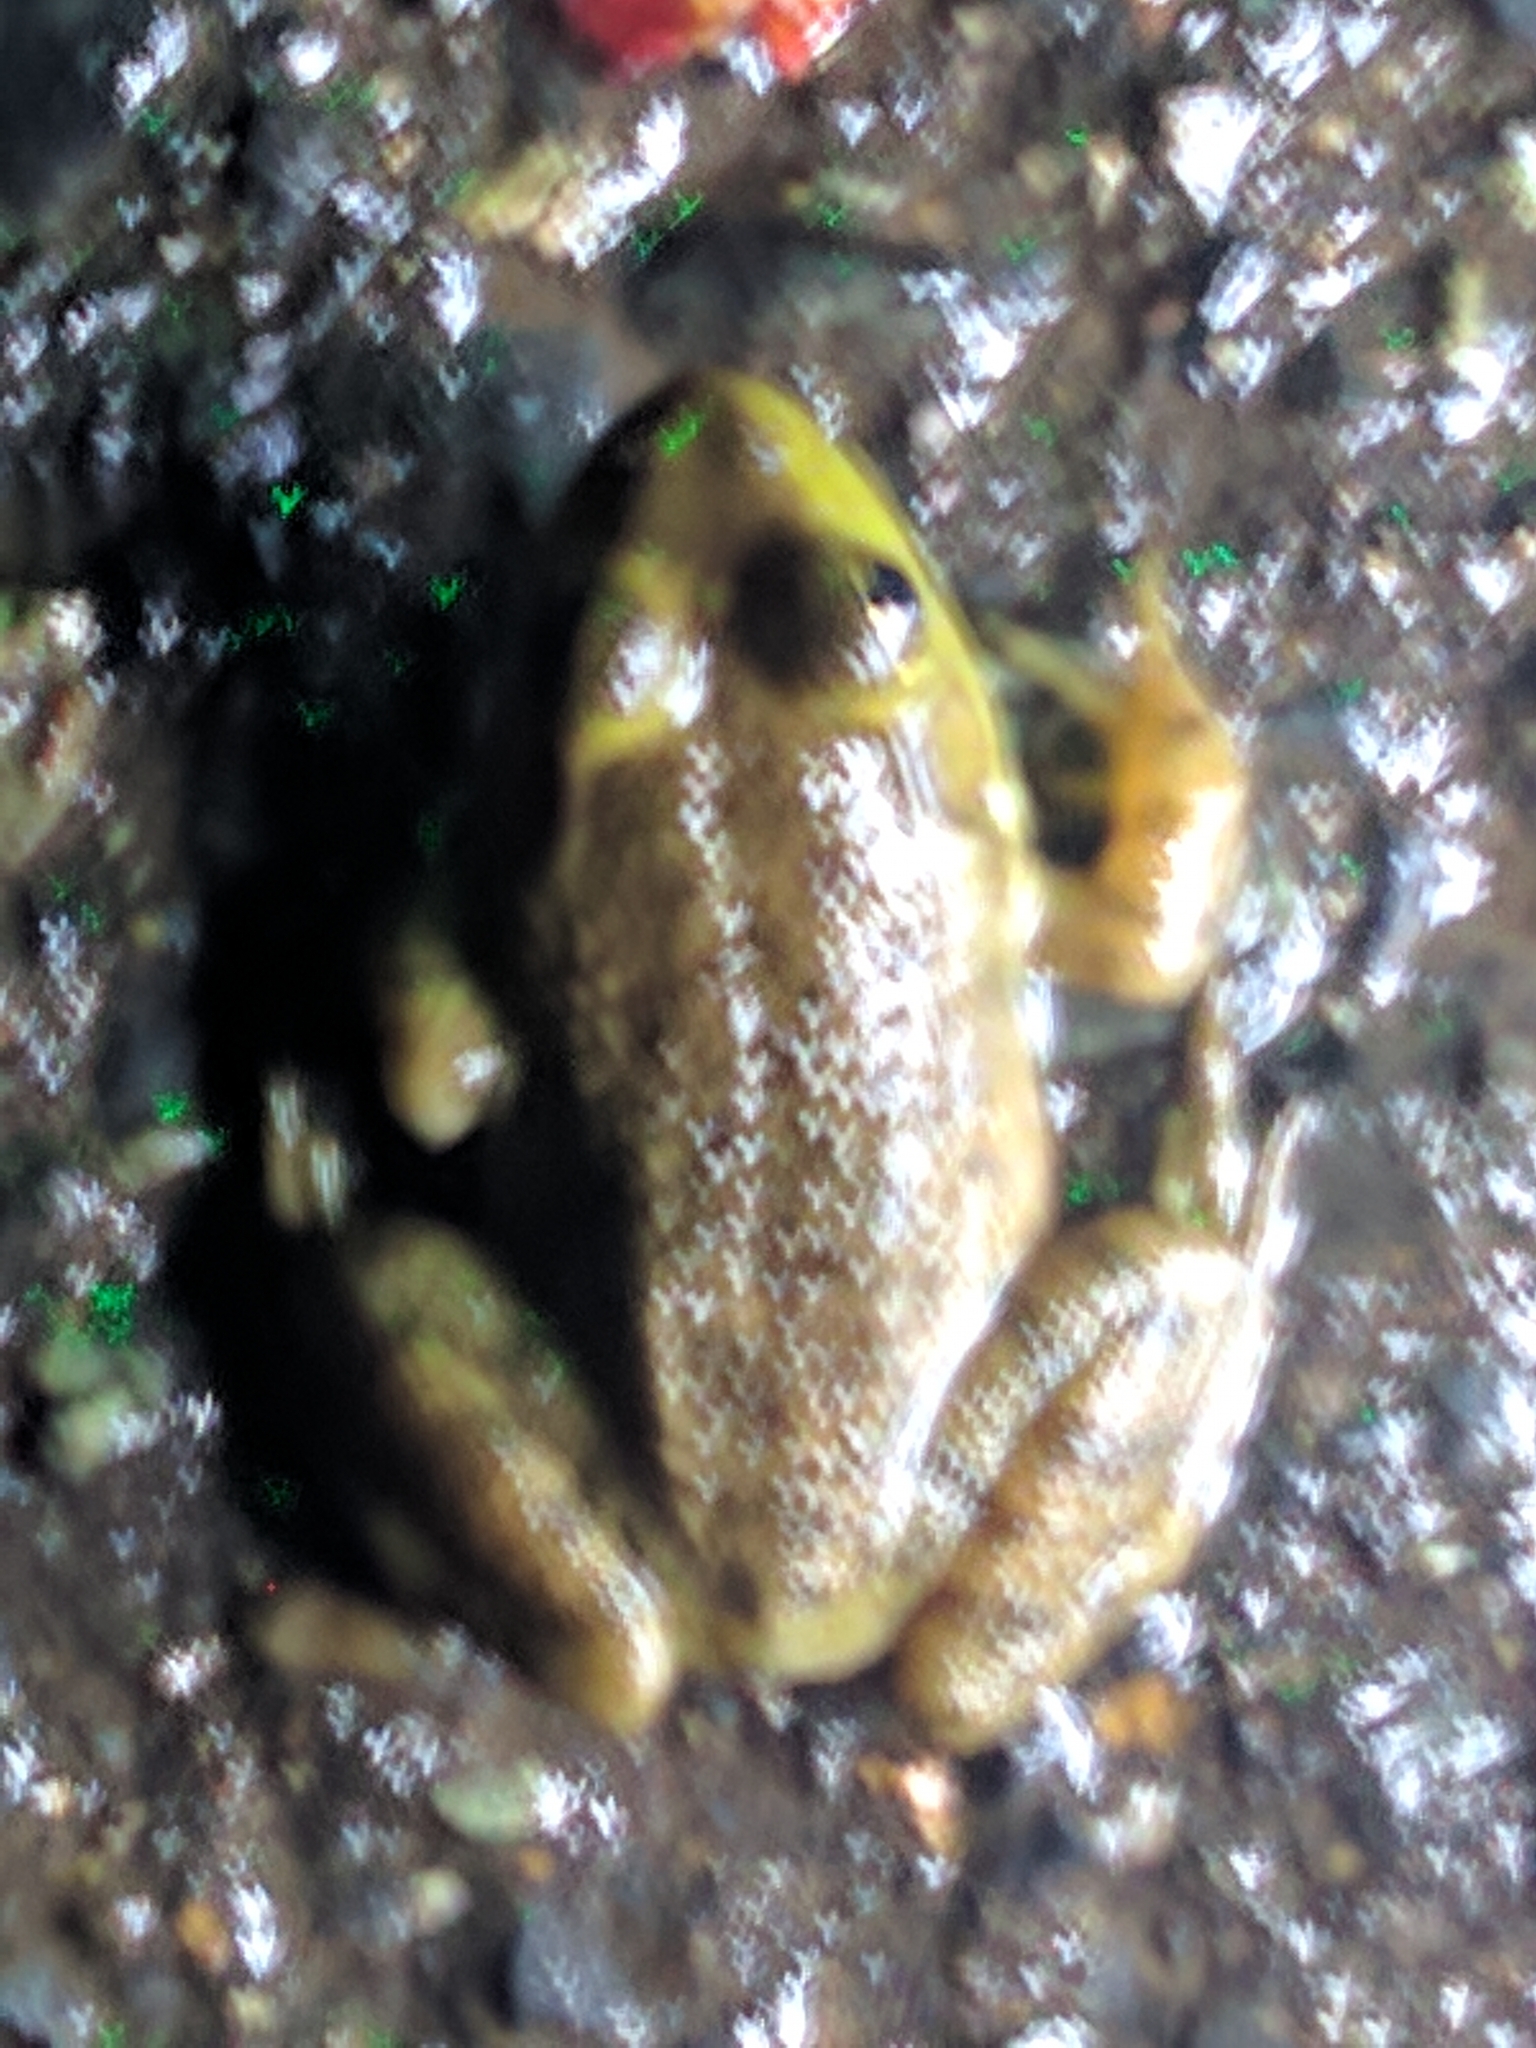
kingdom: Animalia
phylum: Chordata
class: Amphibia
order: Anura
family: Ranidae
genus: Lithobates
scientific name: Lithobates catesbeianus
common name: American bullfrog
